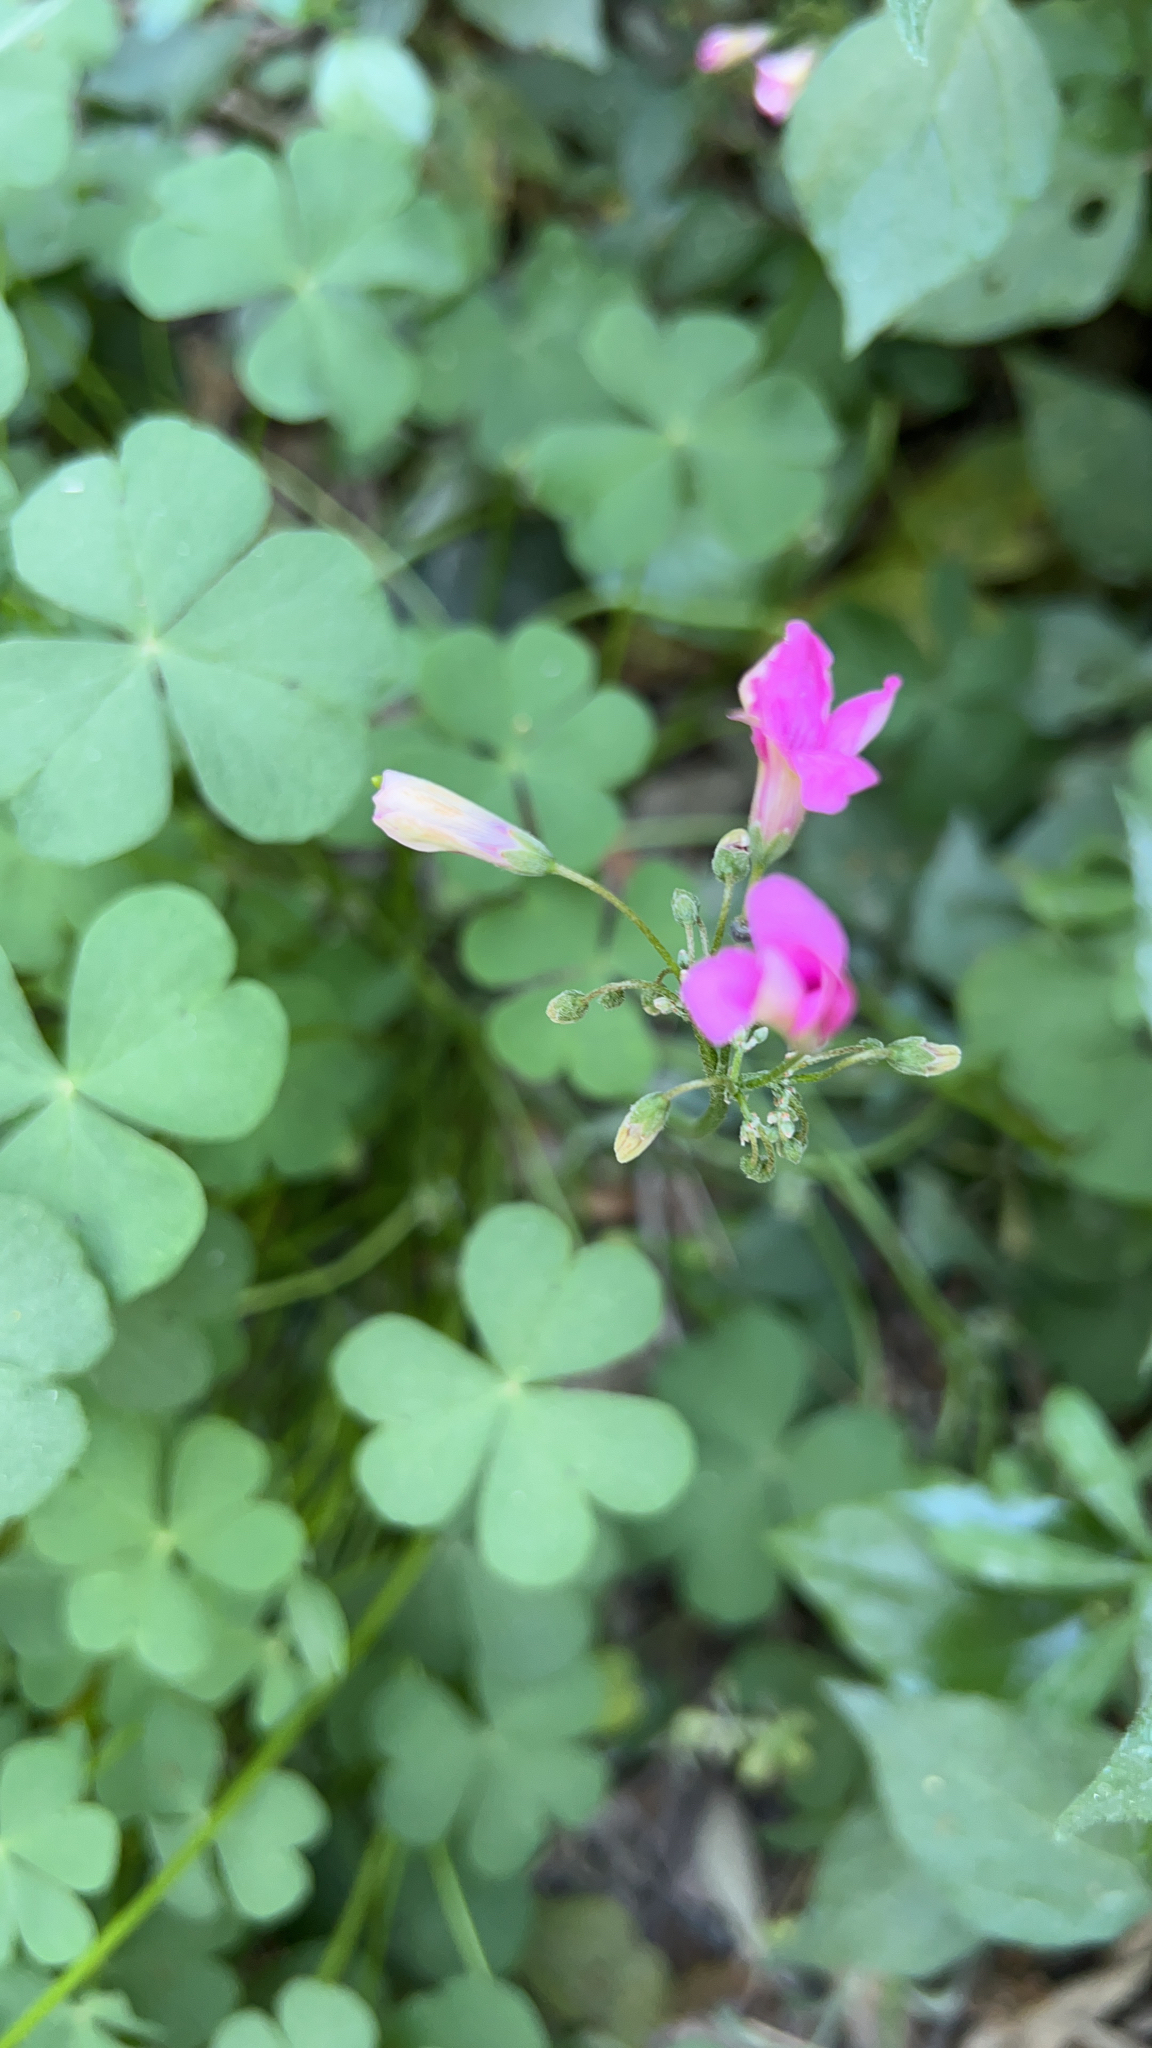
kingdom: Plantae
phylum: Tracheophyta
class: Magnoliopsida
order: Oxalidales
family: Oxalidaceae
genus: Oxalis
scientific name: Oxalis articulata
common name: Pink-sorrel
